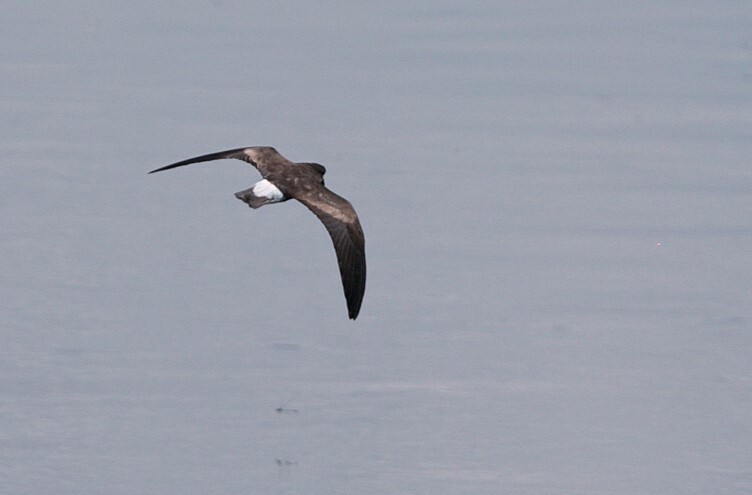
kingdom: Animalia
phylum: Chordata
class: Aves
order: Procellariiformes
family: Hydrobatidae
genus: Oceanodroma
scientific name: Oceanodroma tethys
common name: Wedge-rumped storm-petrel
